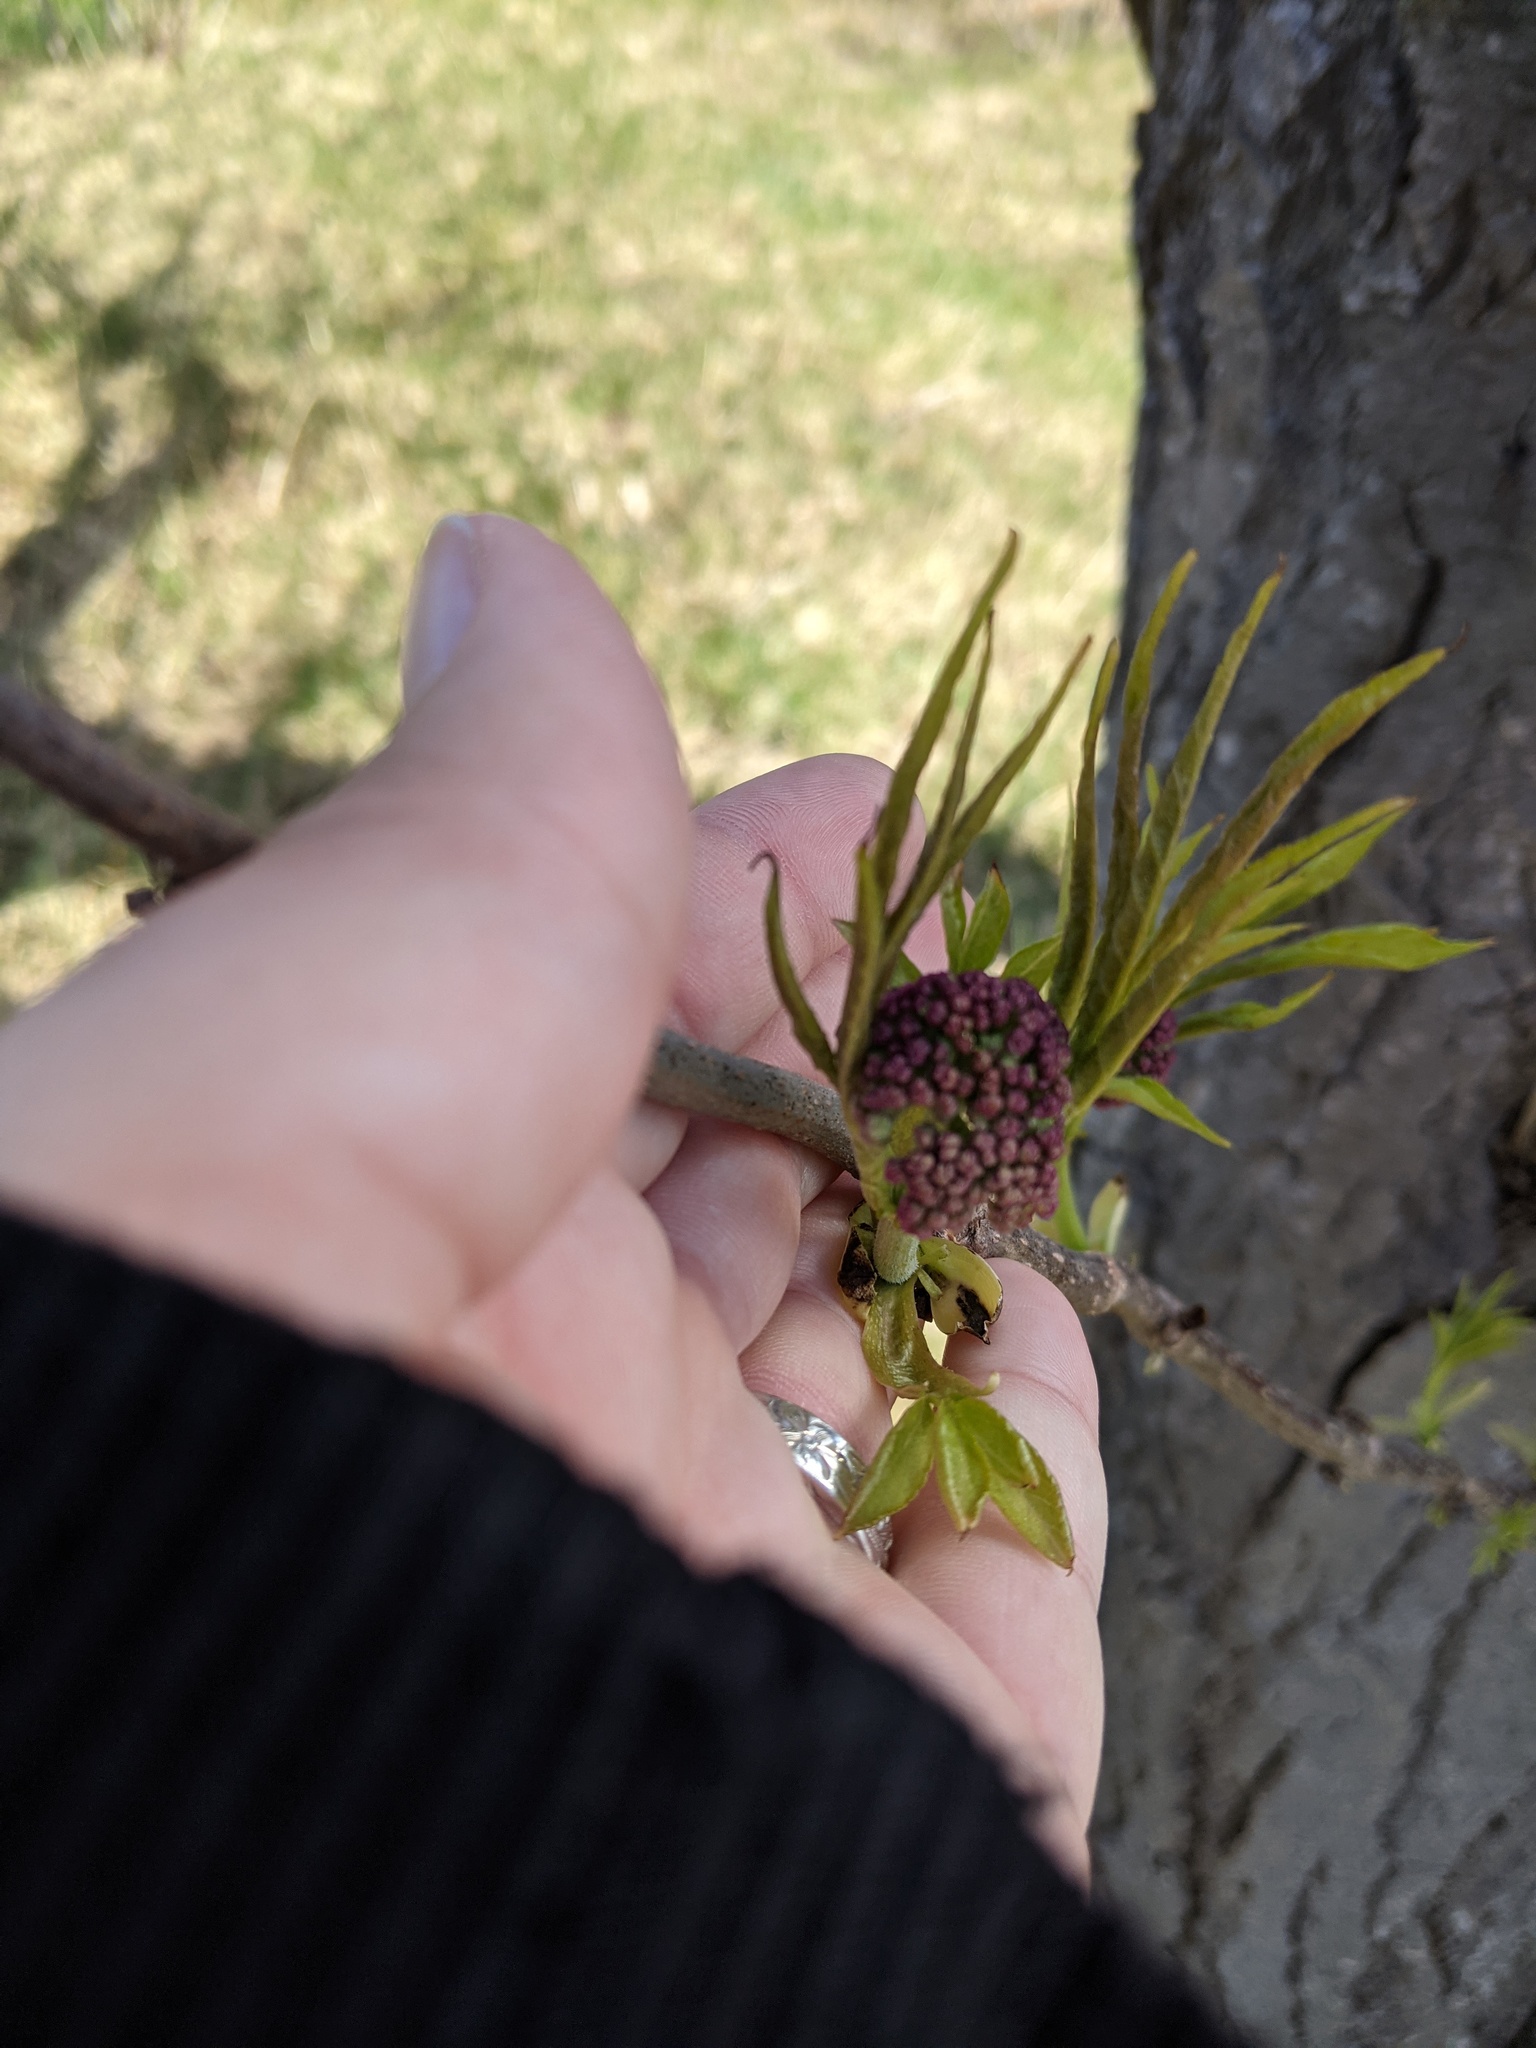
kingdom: Plantae
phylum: Tracheophyta
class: Magnoliopsida
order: Dipsacales
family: Viburnaceae
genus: Sambucus
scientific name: Sambucus racemosa
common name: Red-berried elder
